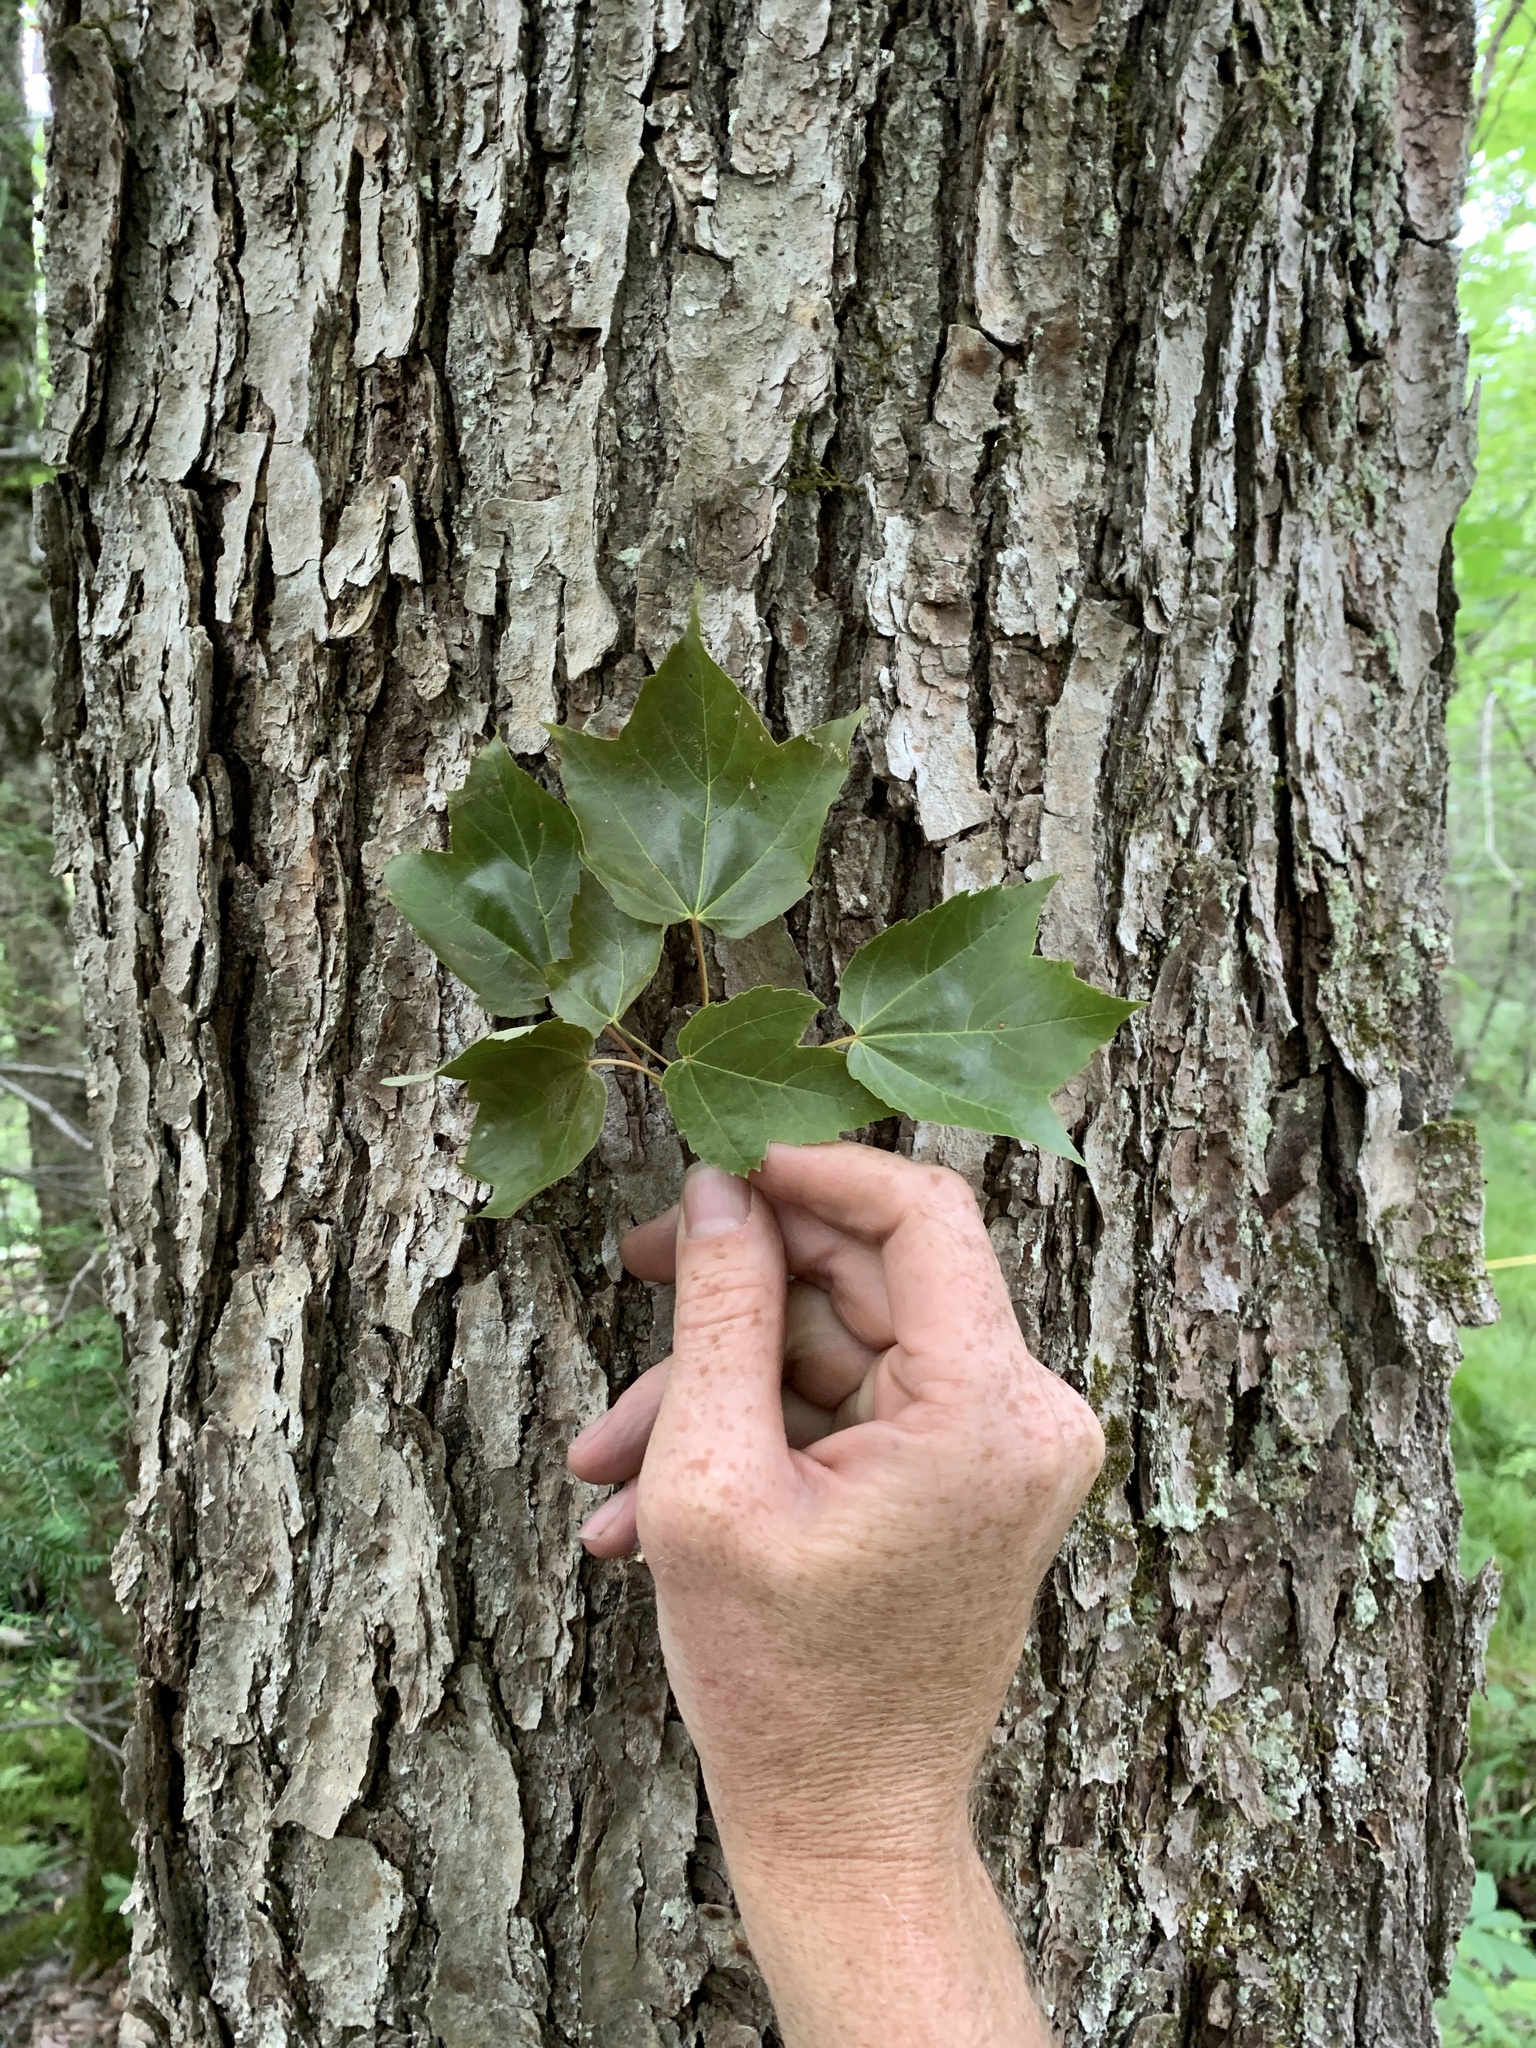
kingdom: Plantae
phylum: Tracheophyta
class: Magnoliopsida
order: Sapindales
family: Sapindaceae
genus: Acer
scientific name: Acer rubrum
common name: Red maple
